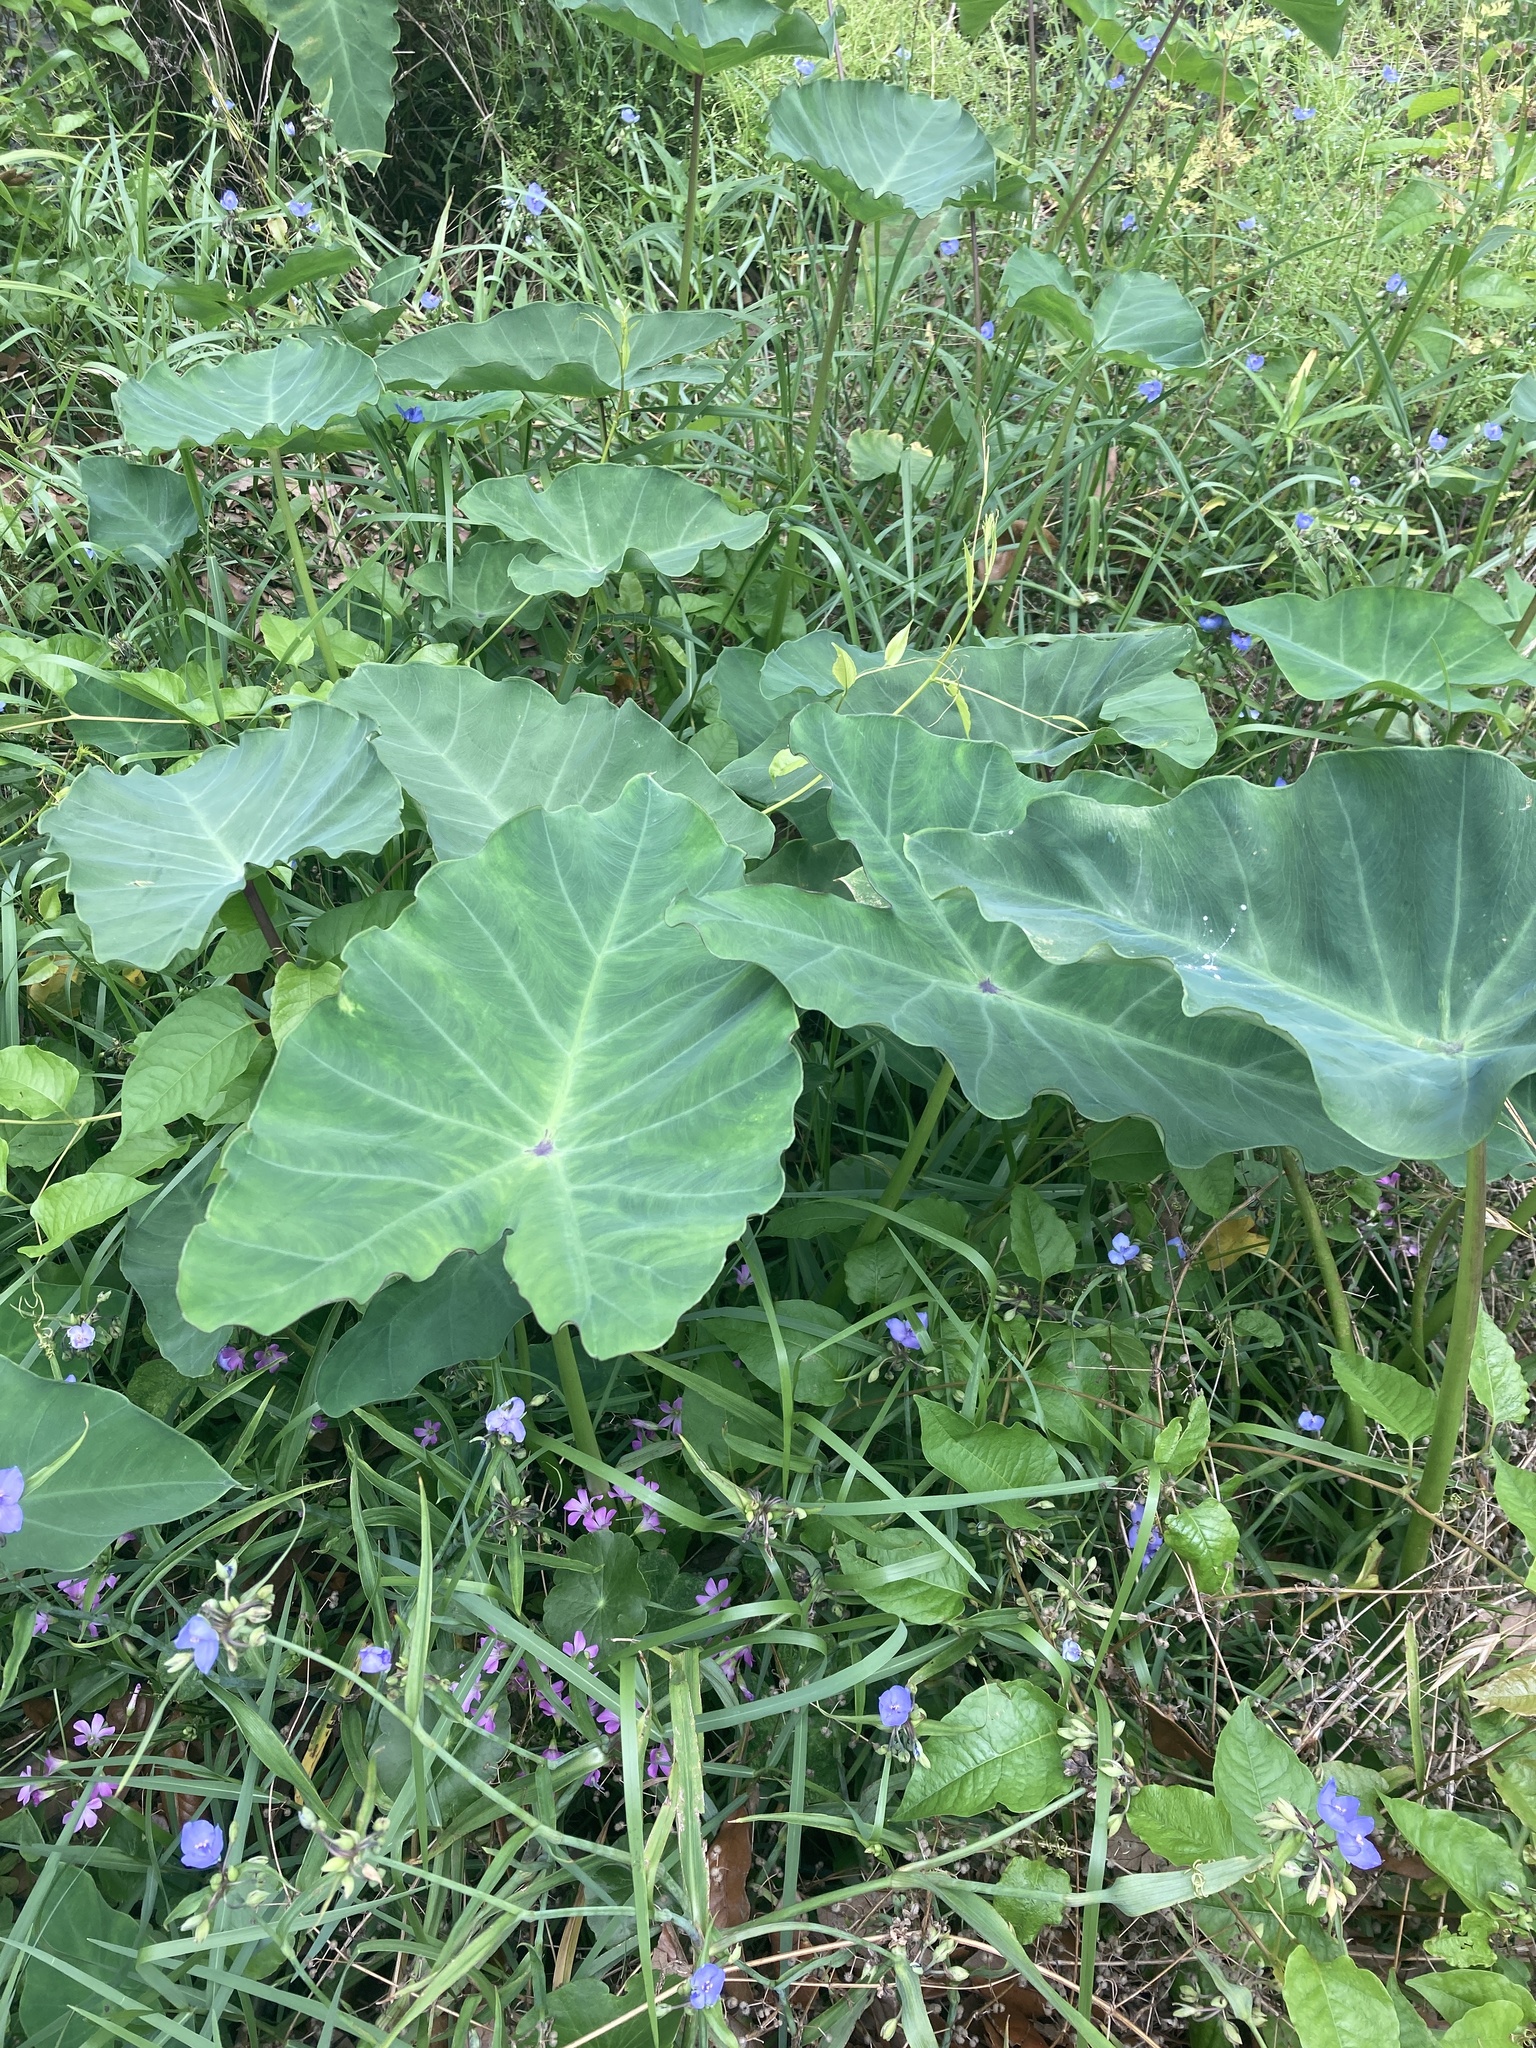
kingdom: Plantae
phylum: Tracheophyta
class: Liliopsida
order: Alismatales
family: Araceae
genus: Colocasia
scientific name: Colocasia esculenta
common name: Taro
